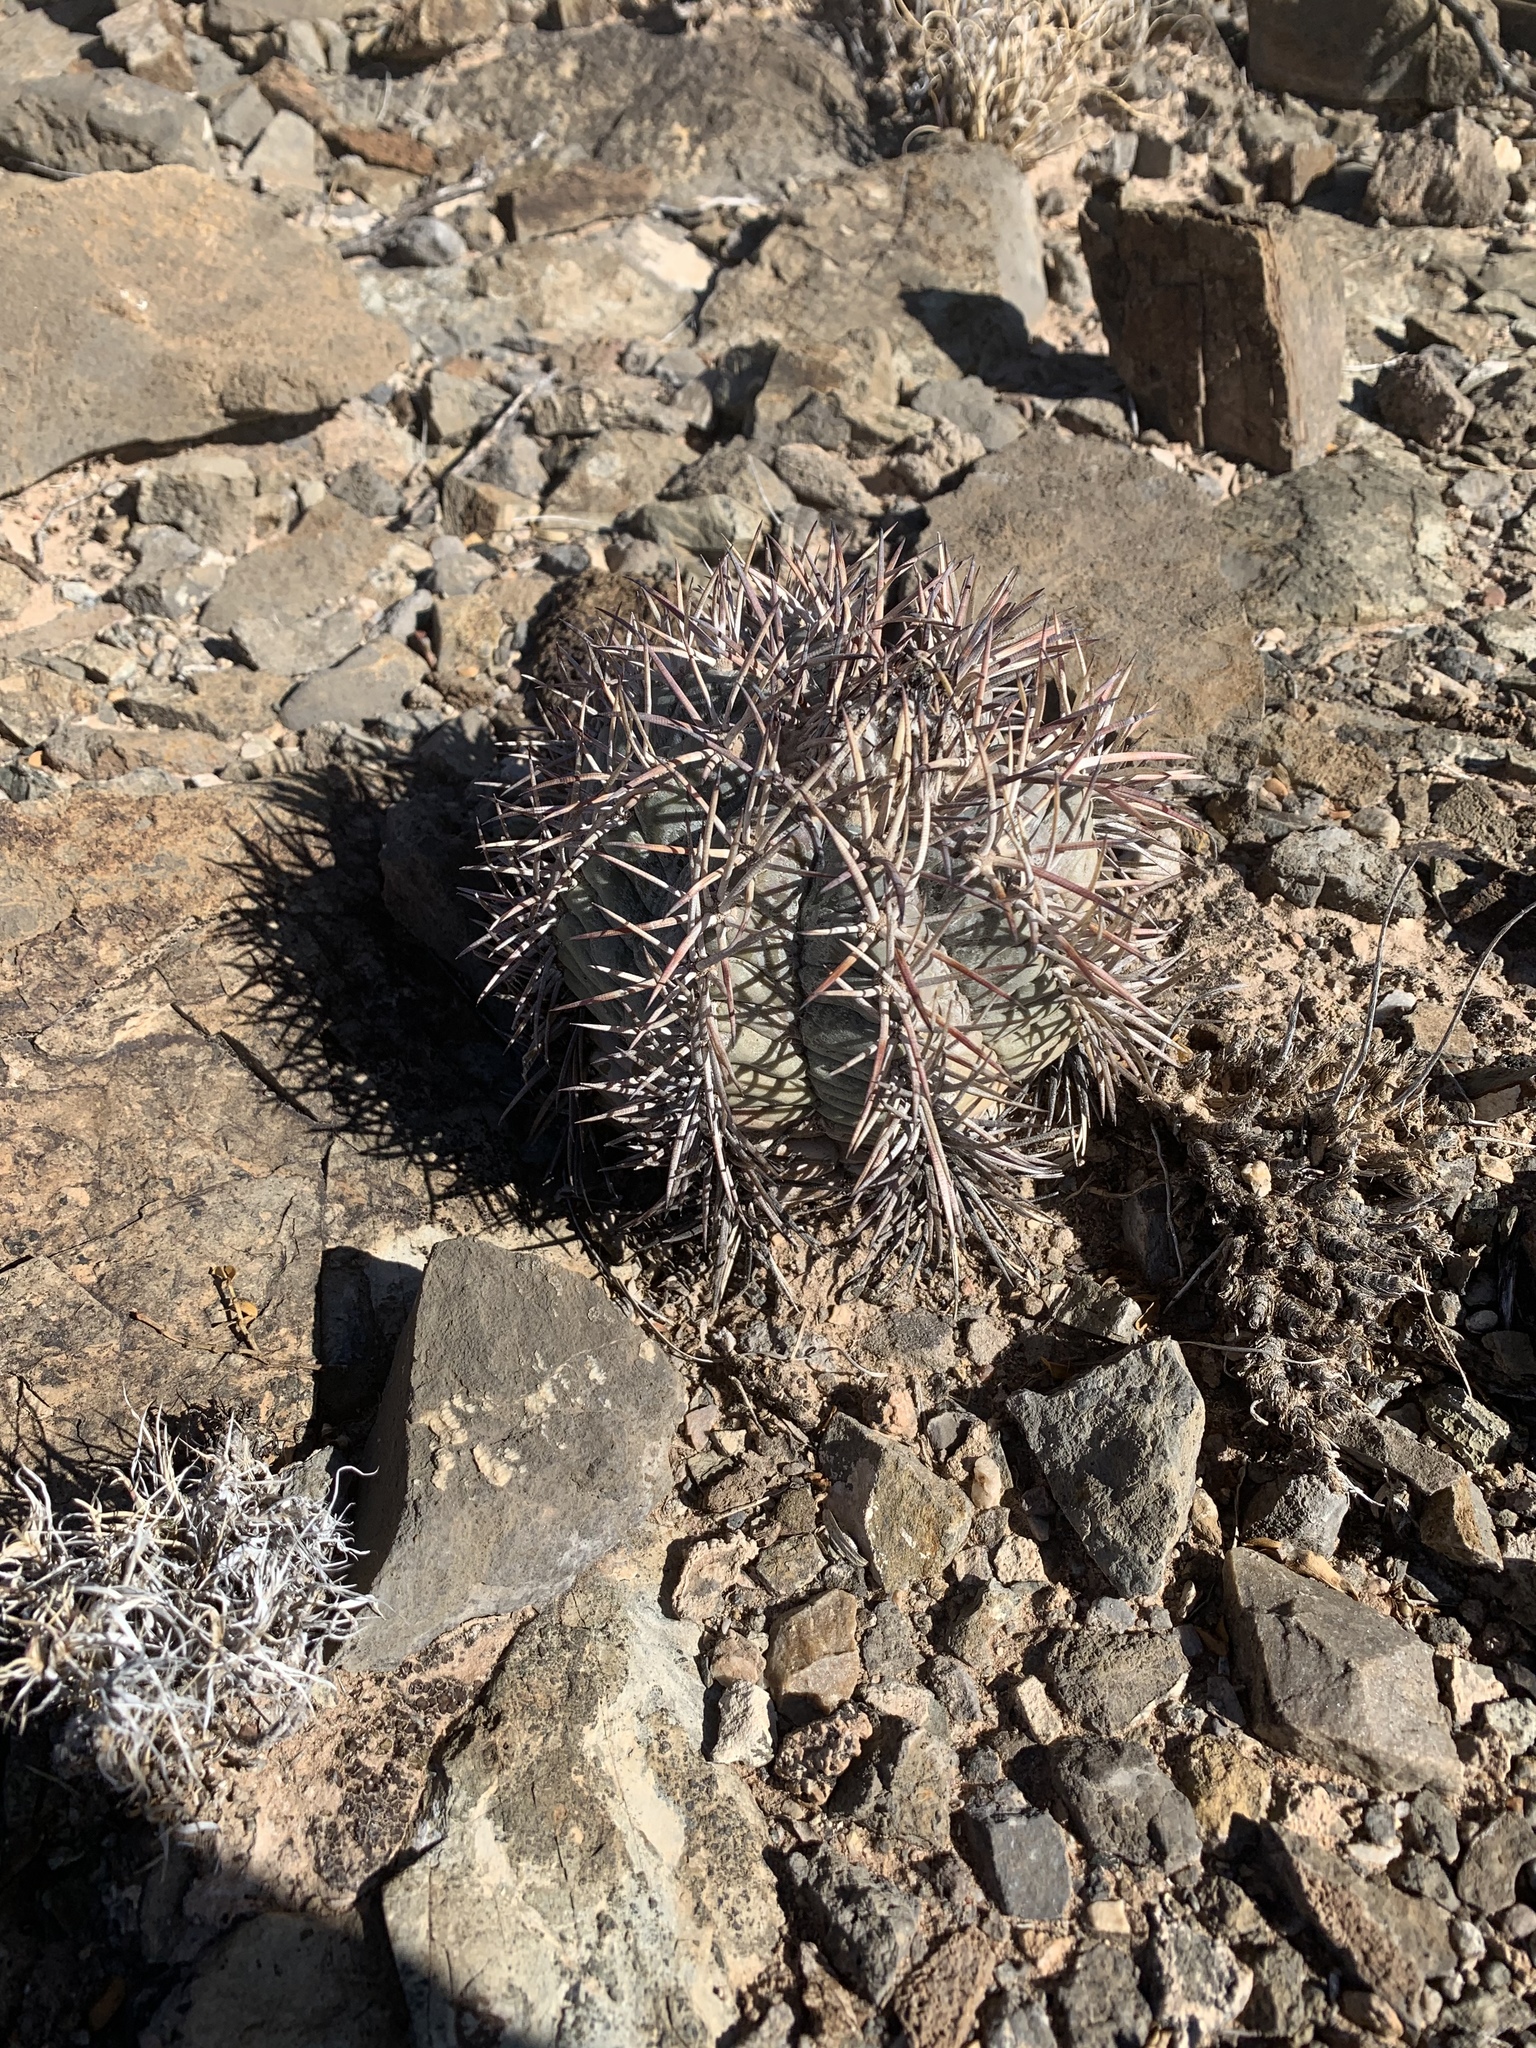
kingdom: Plantae
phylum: Tracheophyta
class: Magnoliopsida
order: Caryophyllales
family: Cactaceae
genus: Echinocactus
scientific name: Echinocactus horizonthalonius
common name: Devilshead
